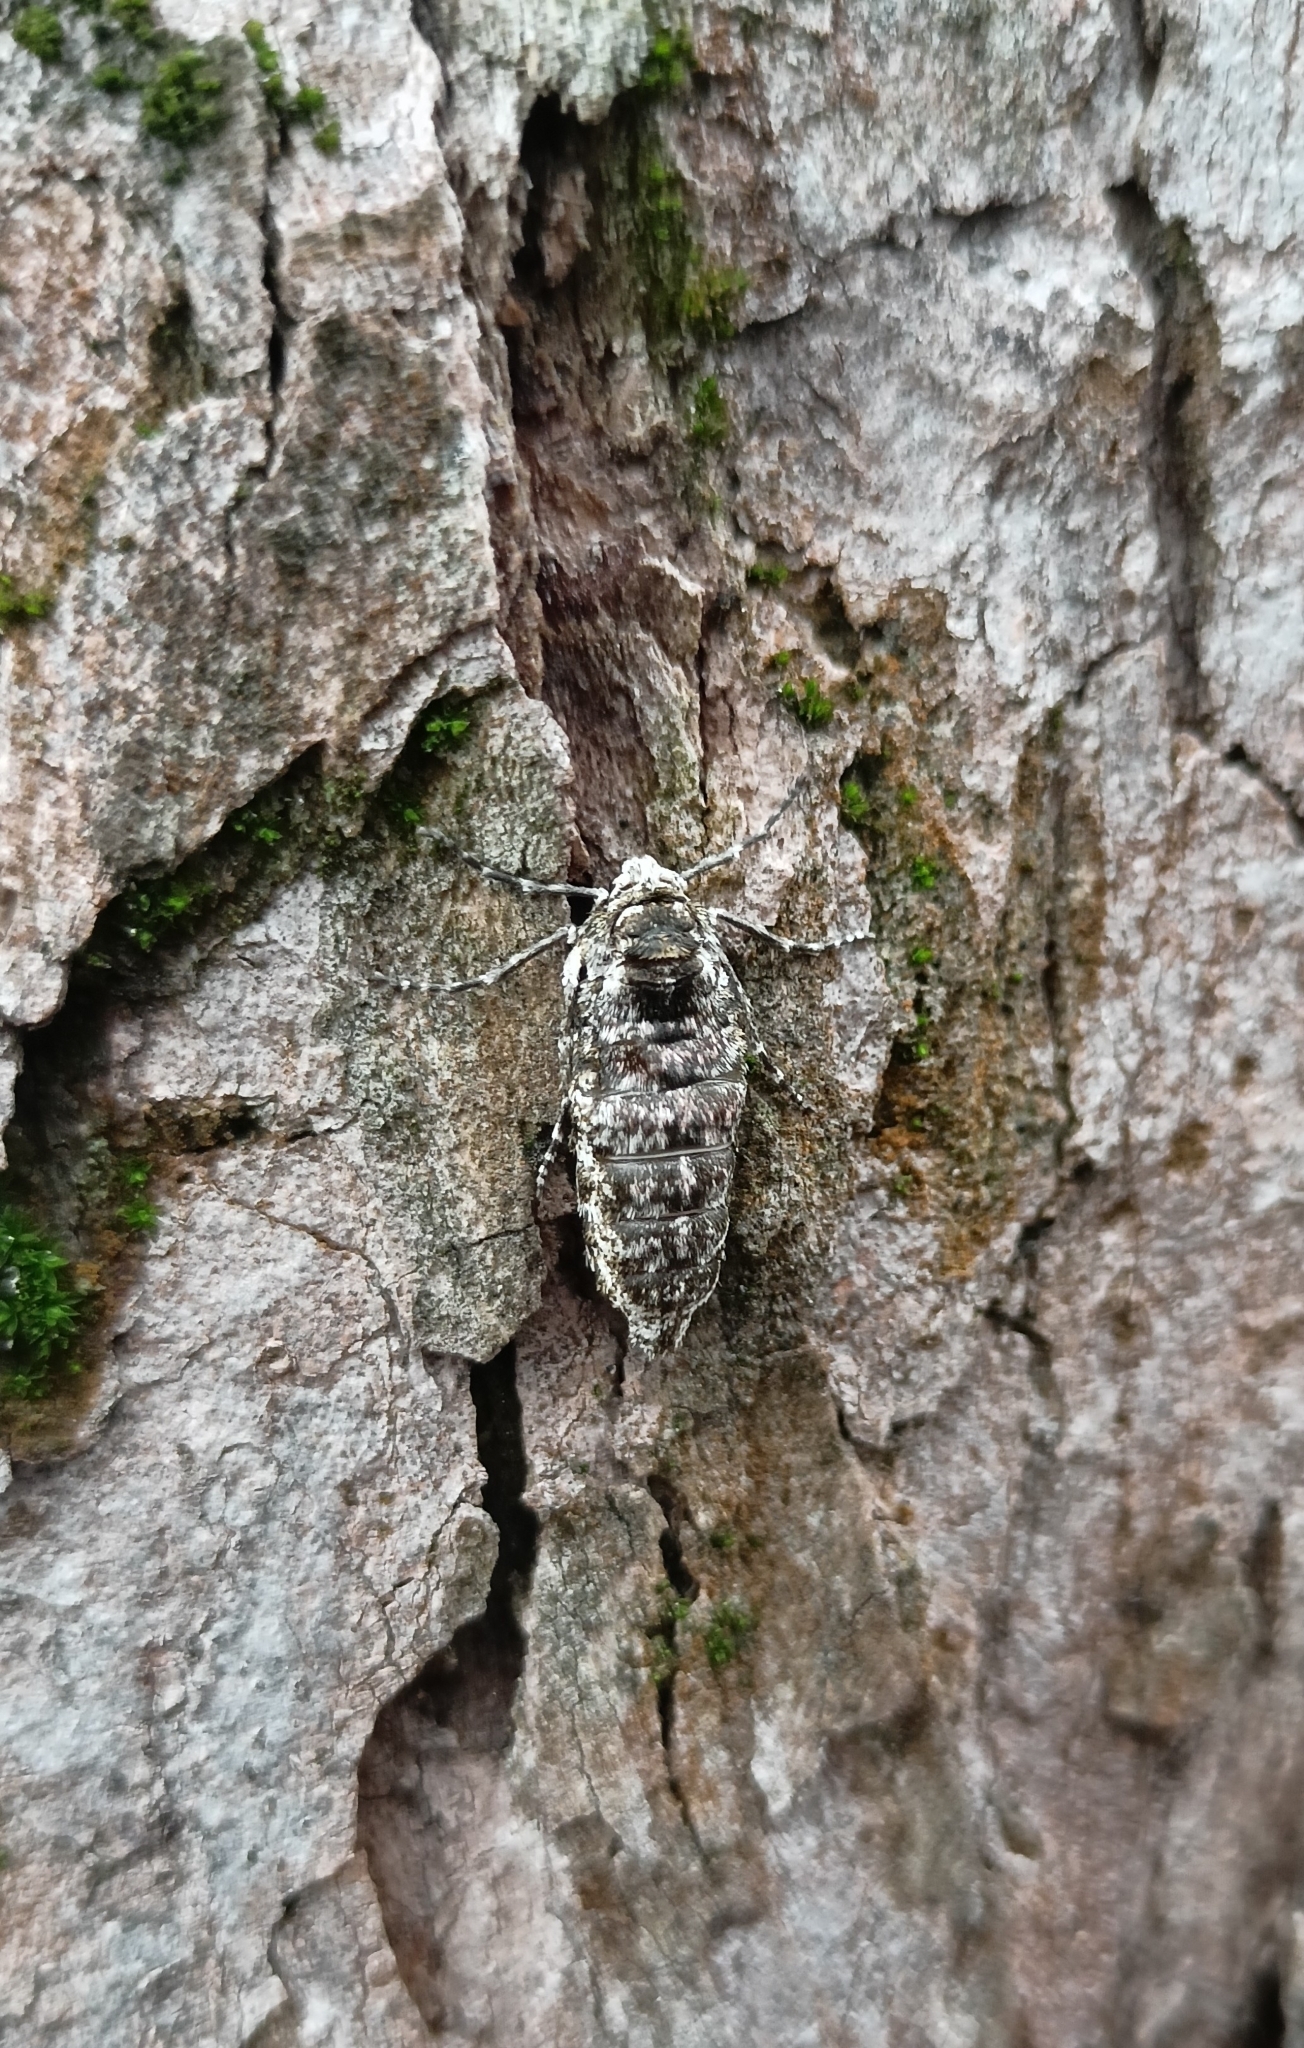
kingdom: Animalia
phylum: Arthropoda
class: Insecta
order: Lepidoptera
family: Geometridae
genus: Phigalia
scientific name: Phigalia pilosaria
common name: Pale brindled beauty
